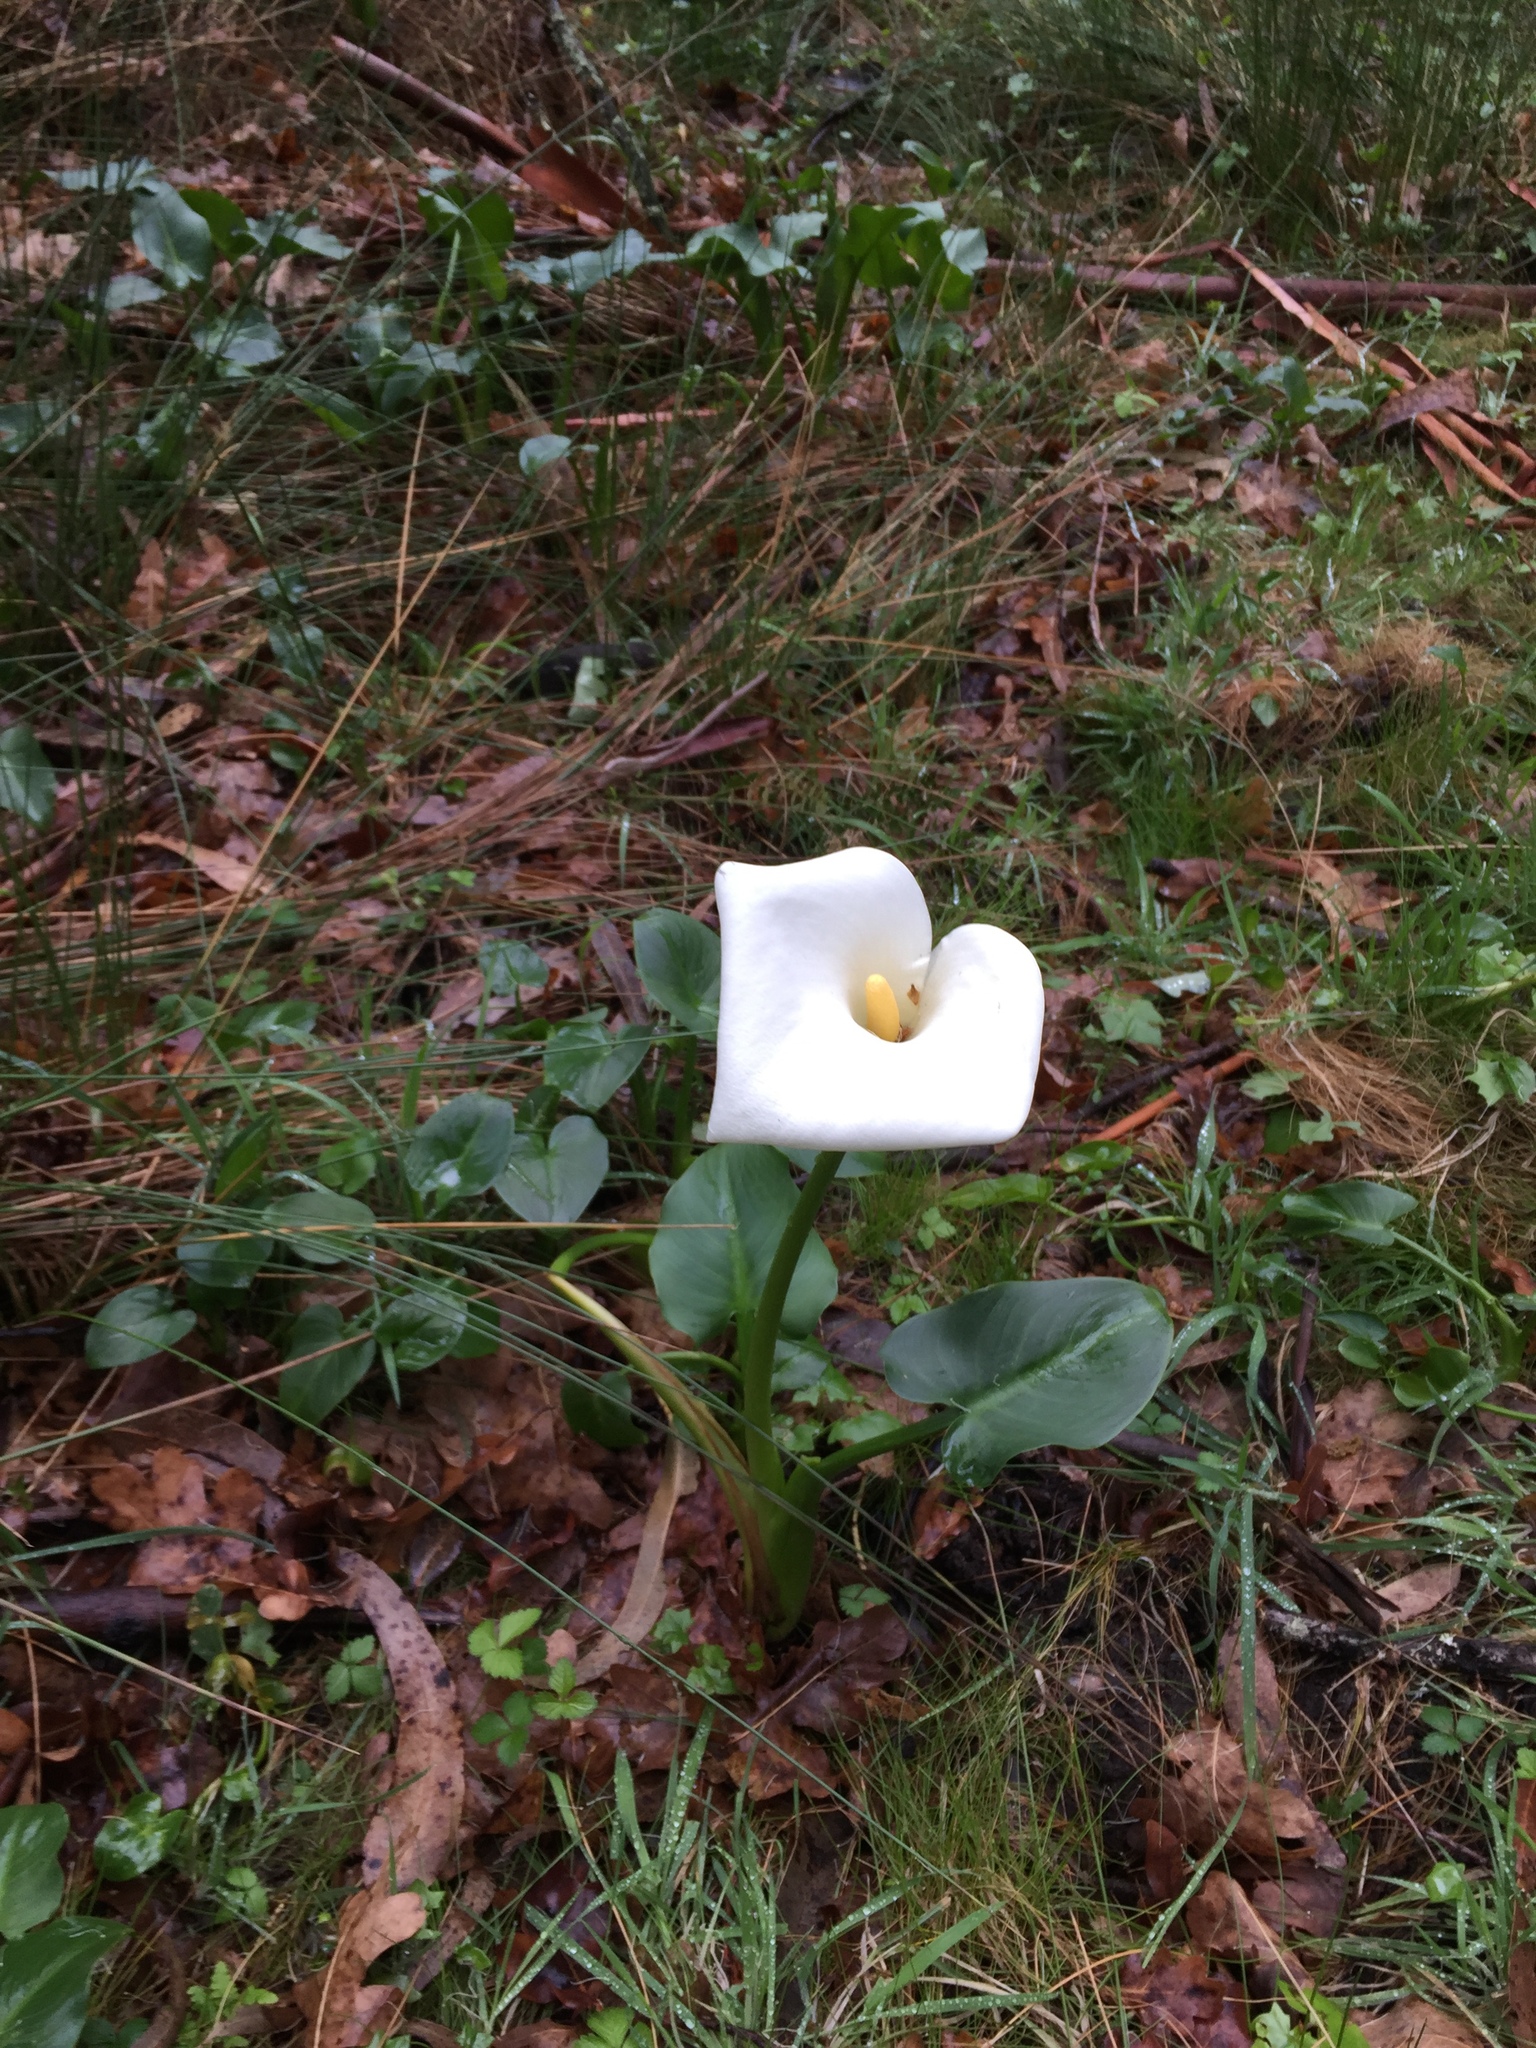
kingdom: Plantae
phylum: Tracheophyta
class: Liliopsida
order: Alismatales
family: Araceae
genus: Zantedeschia
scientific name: Zantedeschia aethiopica
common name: Altar-lily
